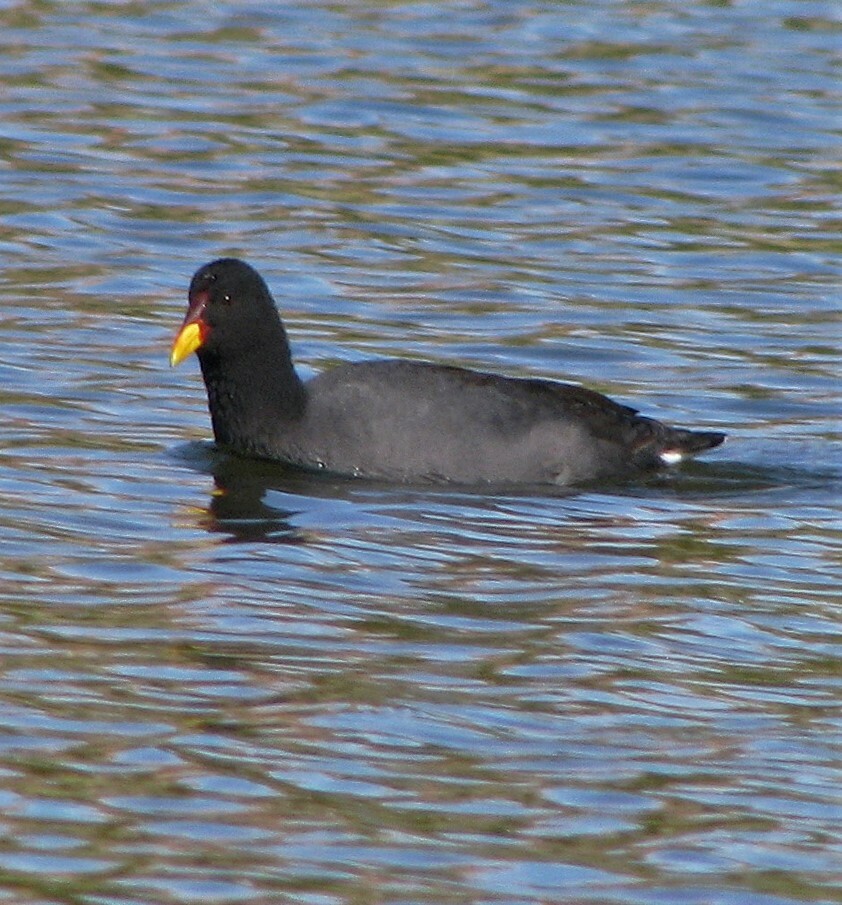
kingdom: Animalia
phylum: Chordata
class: Aves
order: Gruiformes
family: Rallidae
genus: Fulica
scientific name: Fulica rufifrons
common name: Red-fronted coot
